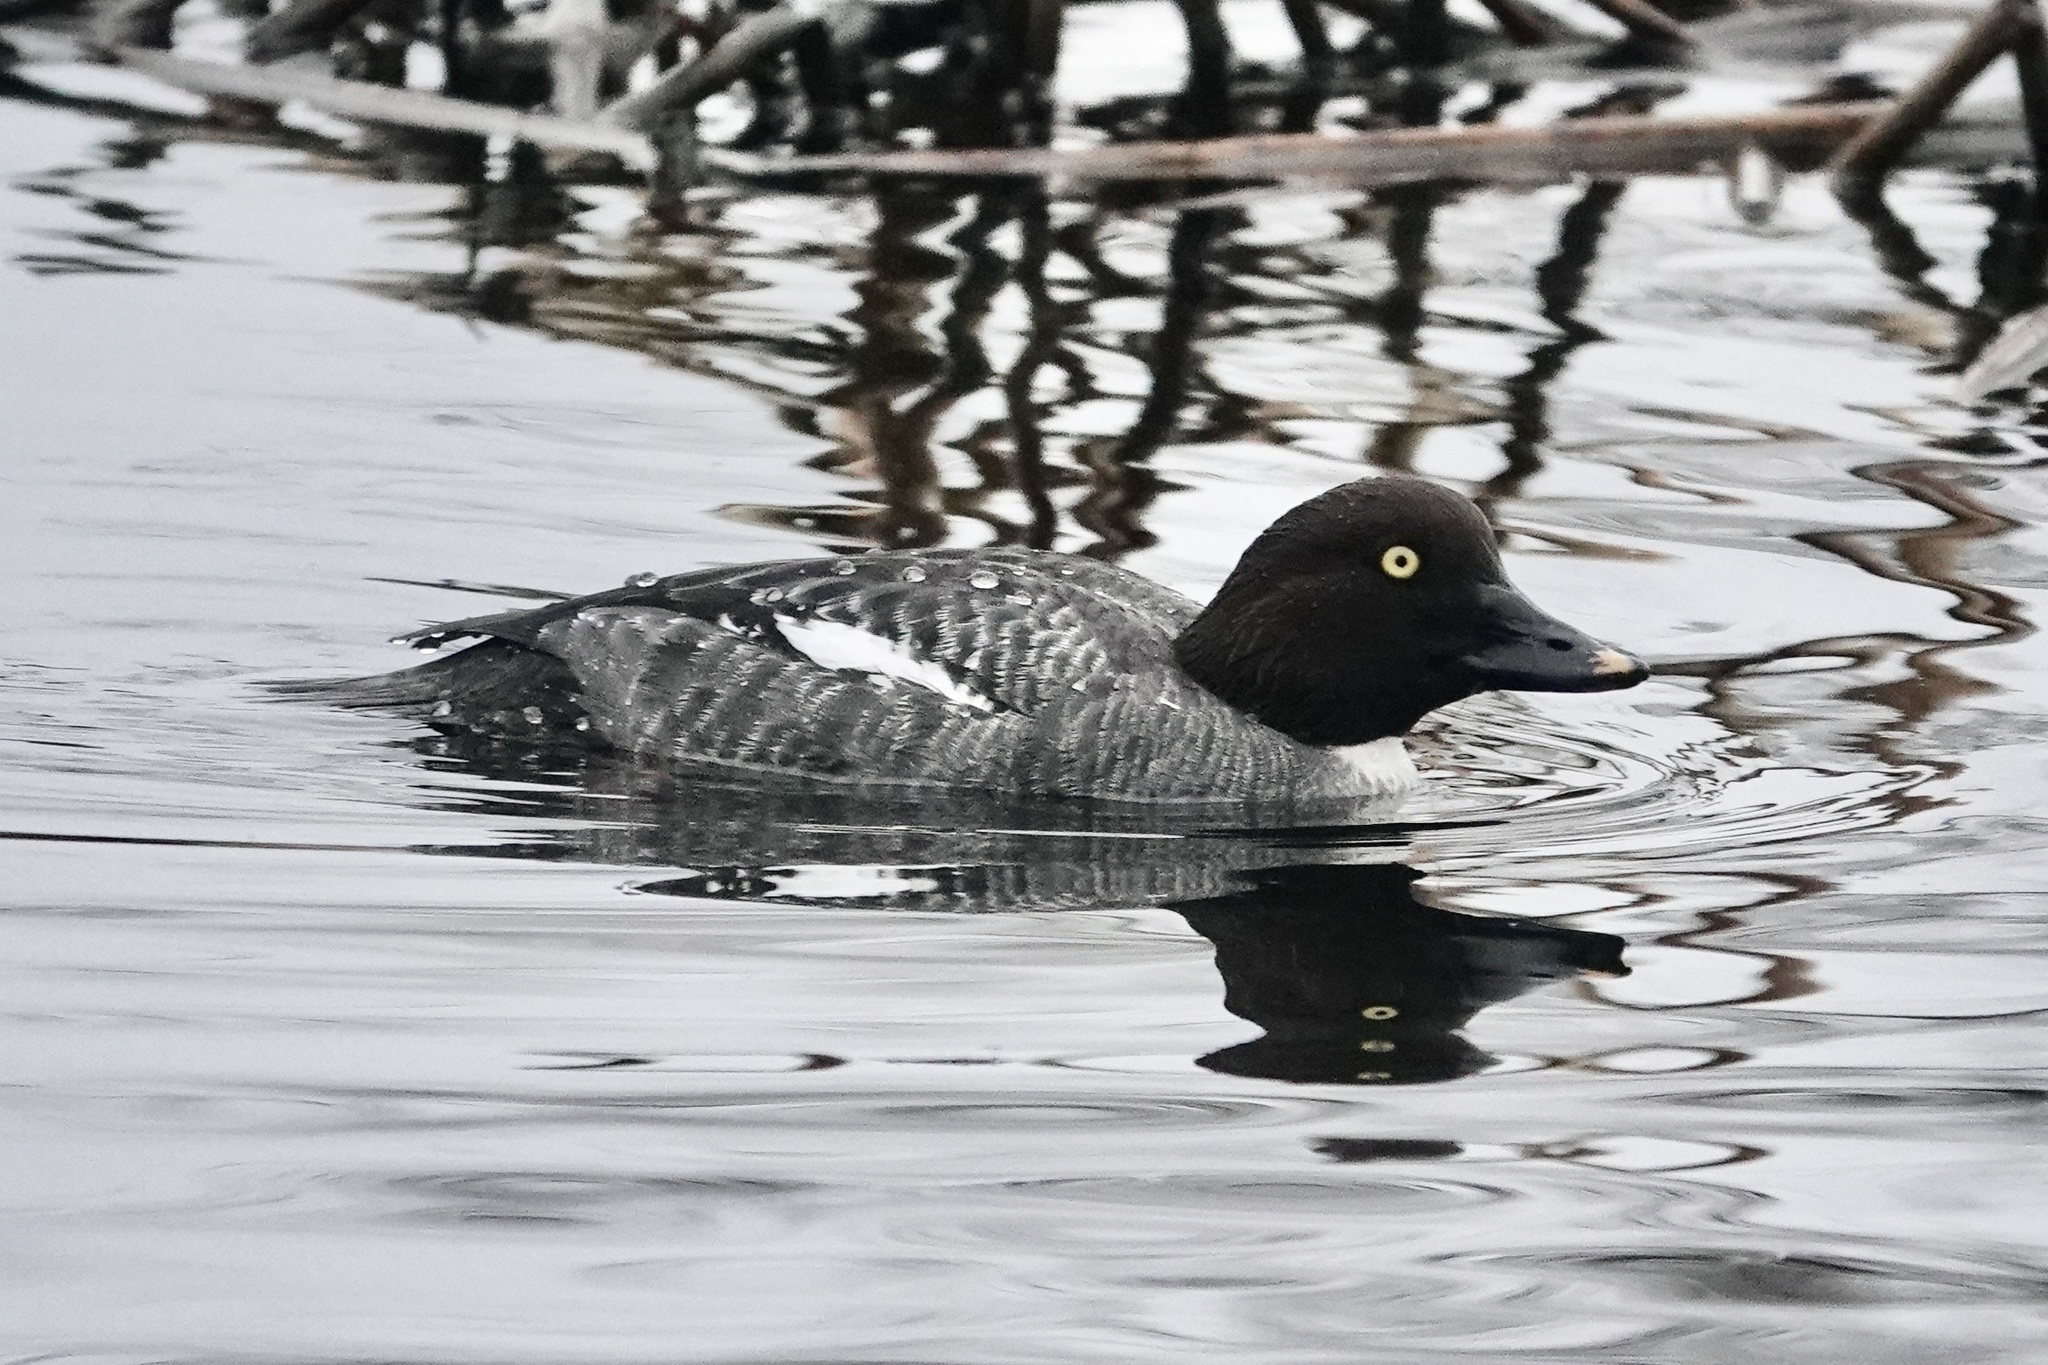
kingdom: Animalia
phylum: Chordata
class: Aves
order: Anseriformes
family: Anatidae
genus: Bucephala
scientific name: Bucephala clangula
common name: Common goldeneye
